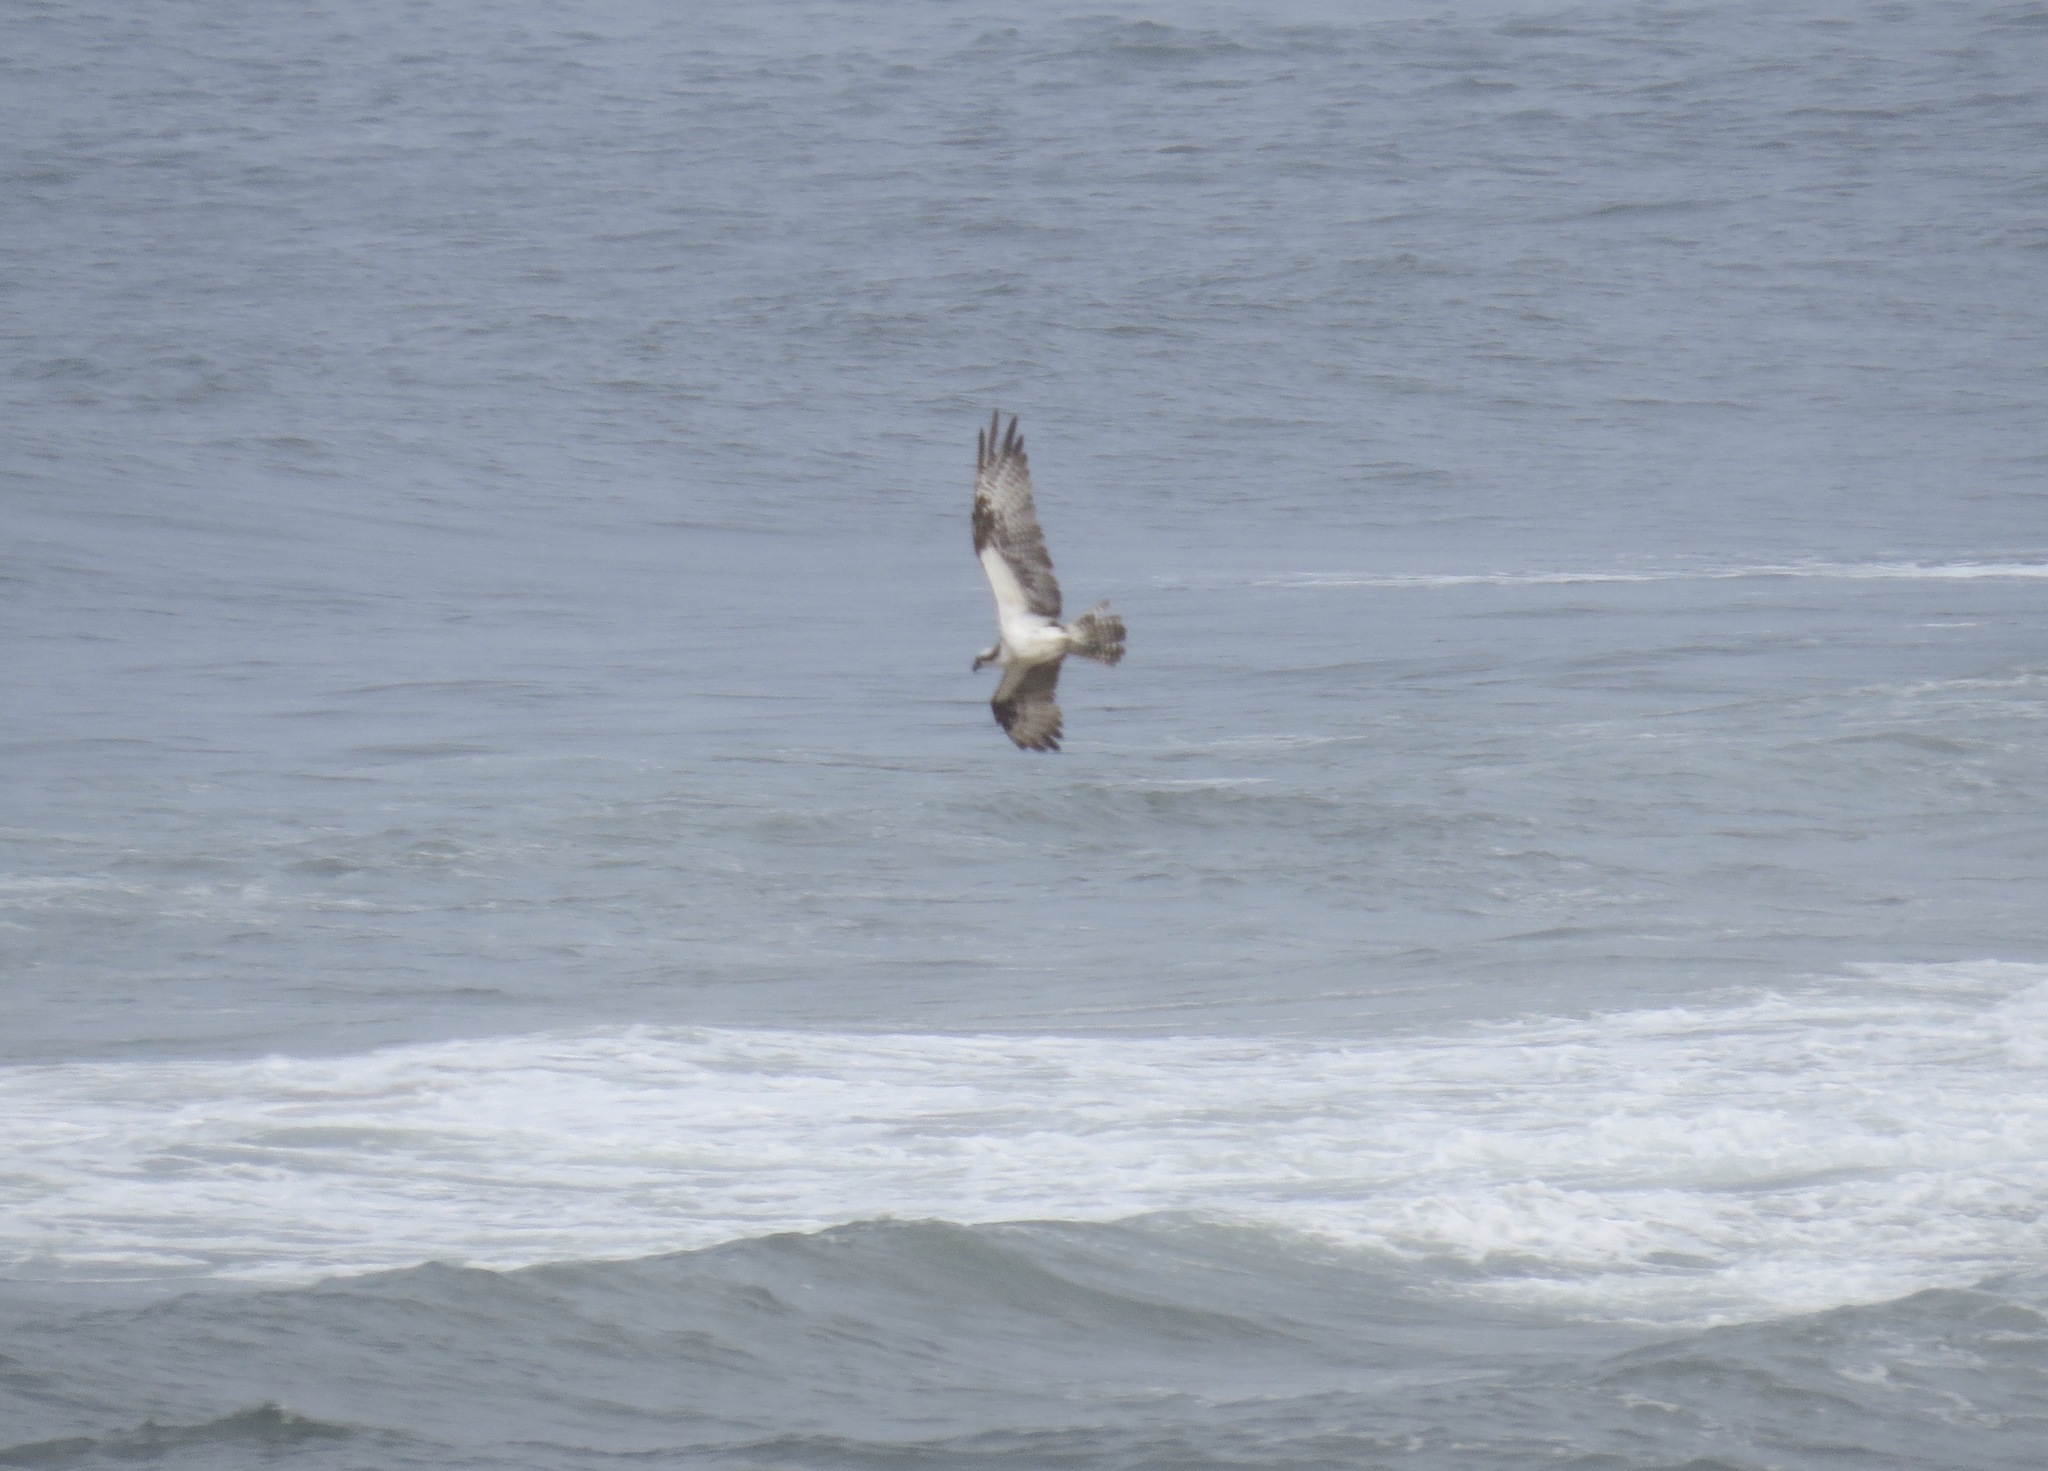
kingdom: Animalia
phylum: Chordata
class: Aves
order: Accipitriformes
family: Pandionidae
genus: Pandion
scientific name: Pandion haliaetus
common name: Osprey
